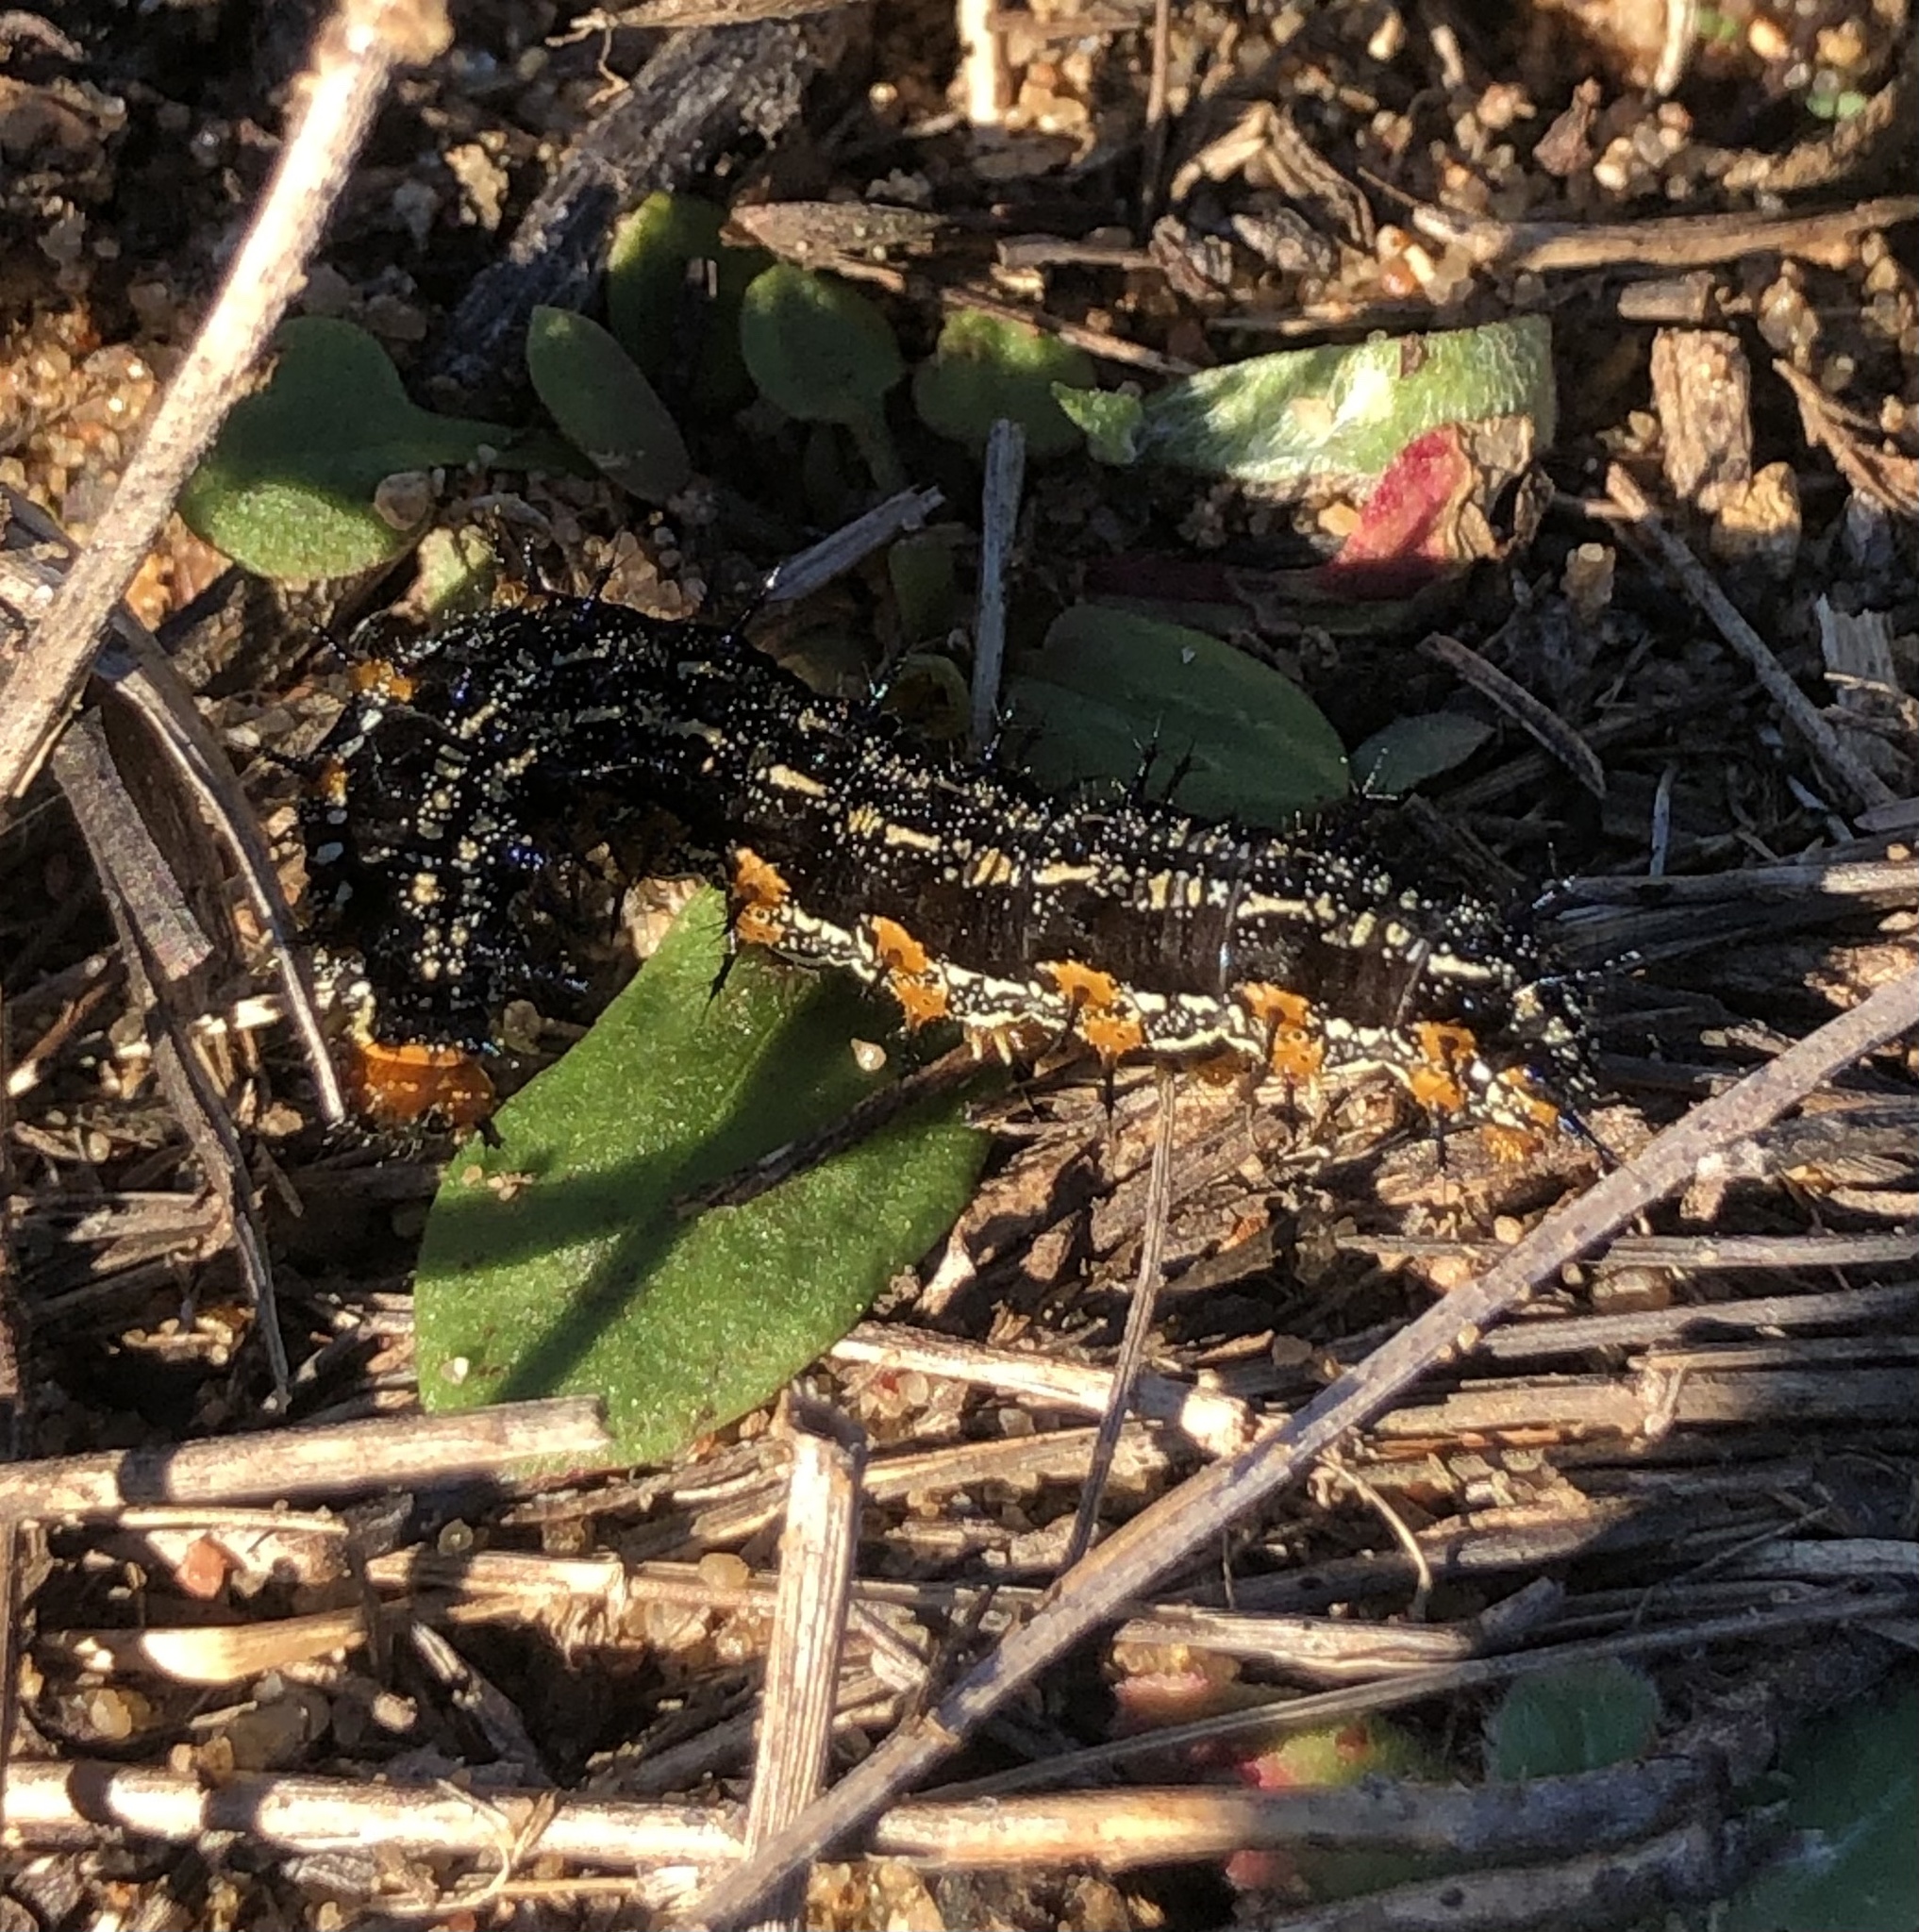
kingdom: Animalia
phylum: Arthropoda
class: Insecta
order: Lepidoptera
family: Nymphalidae
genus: Junonia
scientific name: Junonia coenia
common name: Common buckeye
